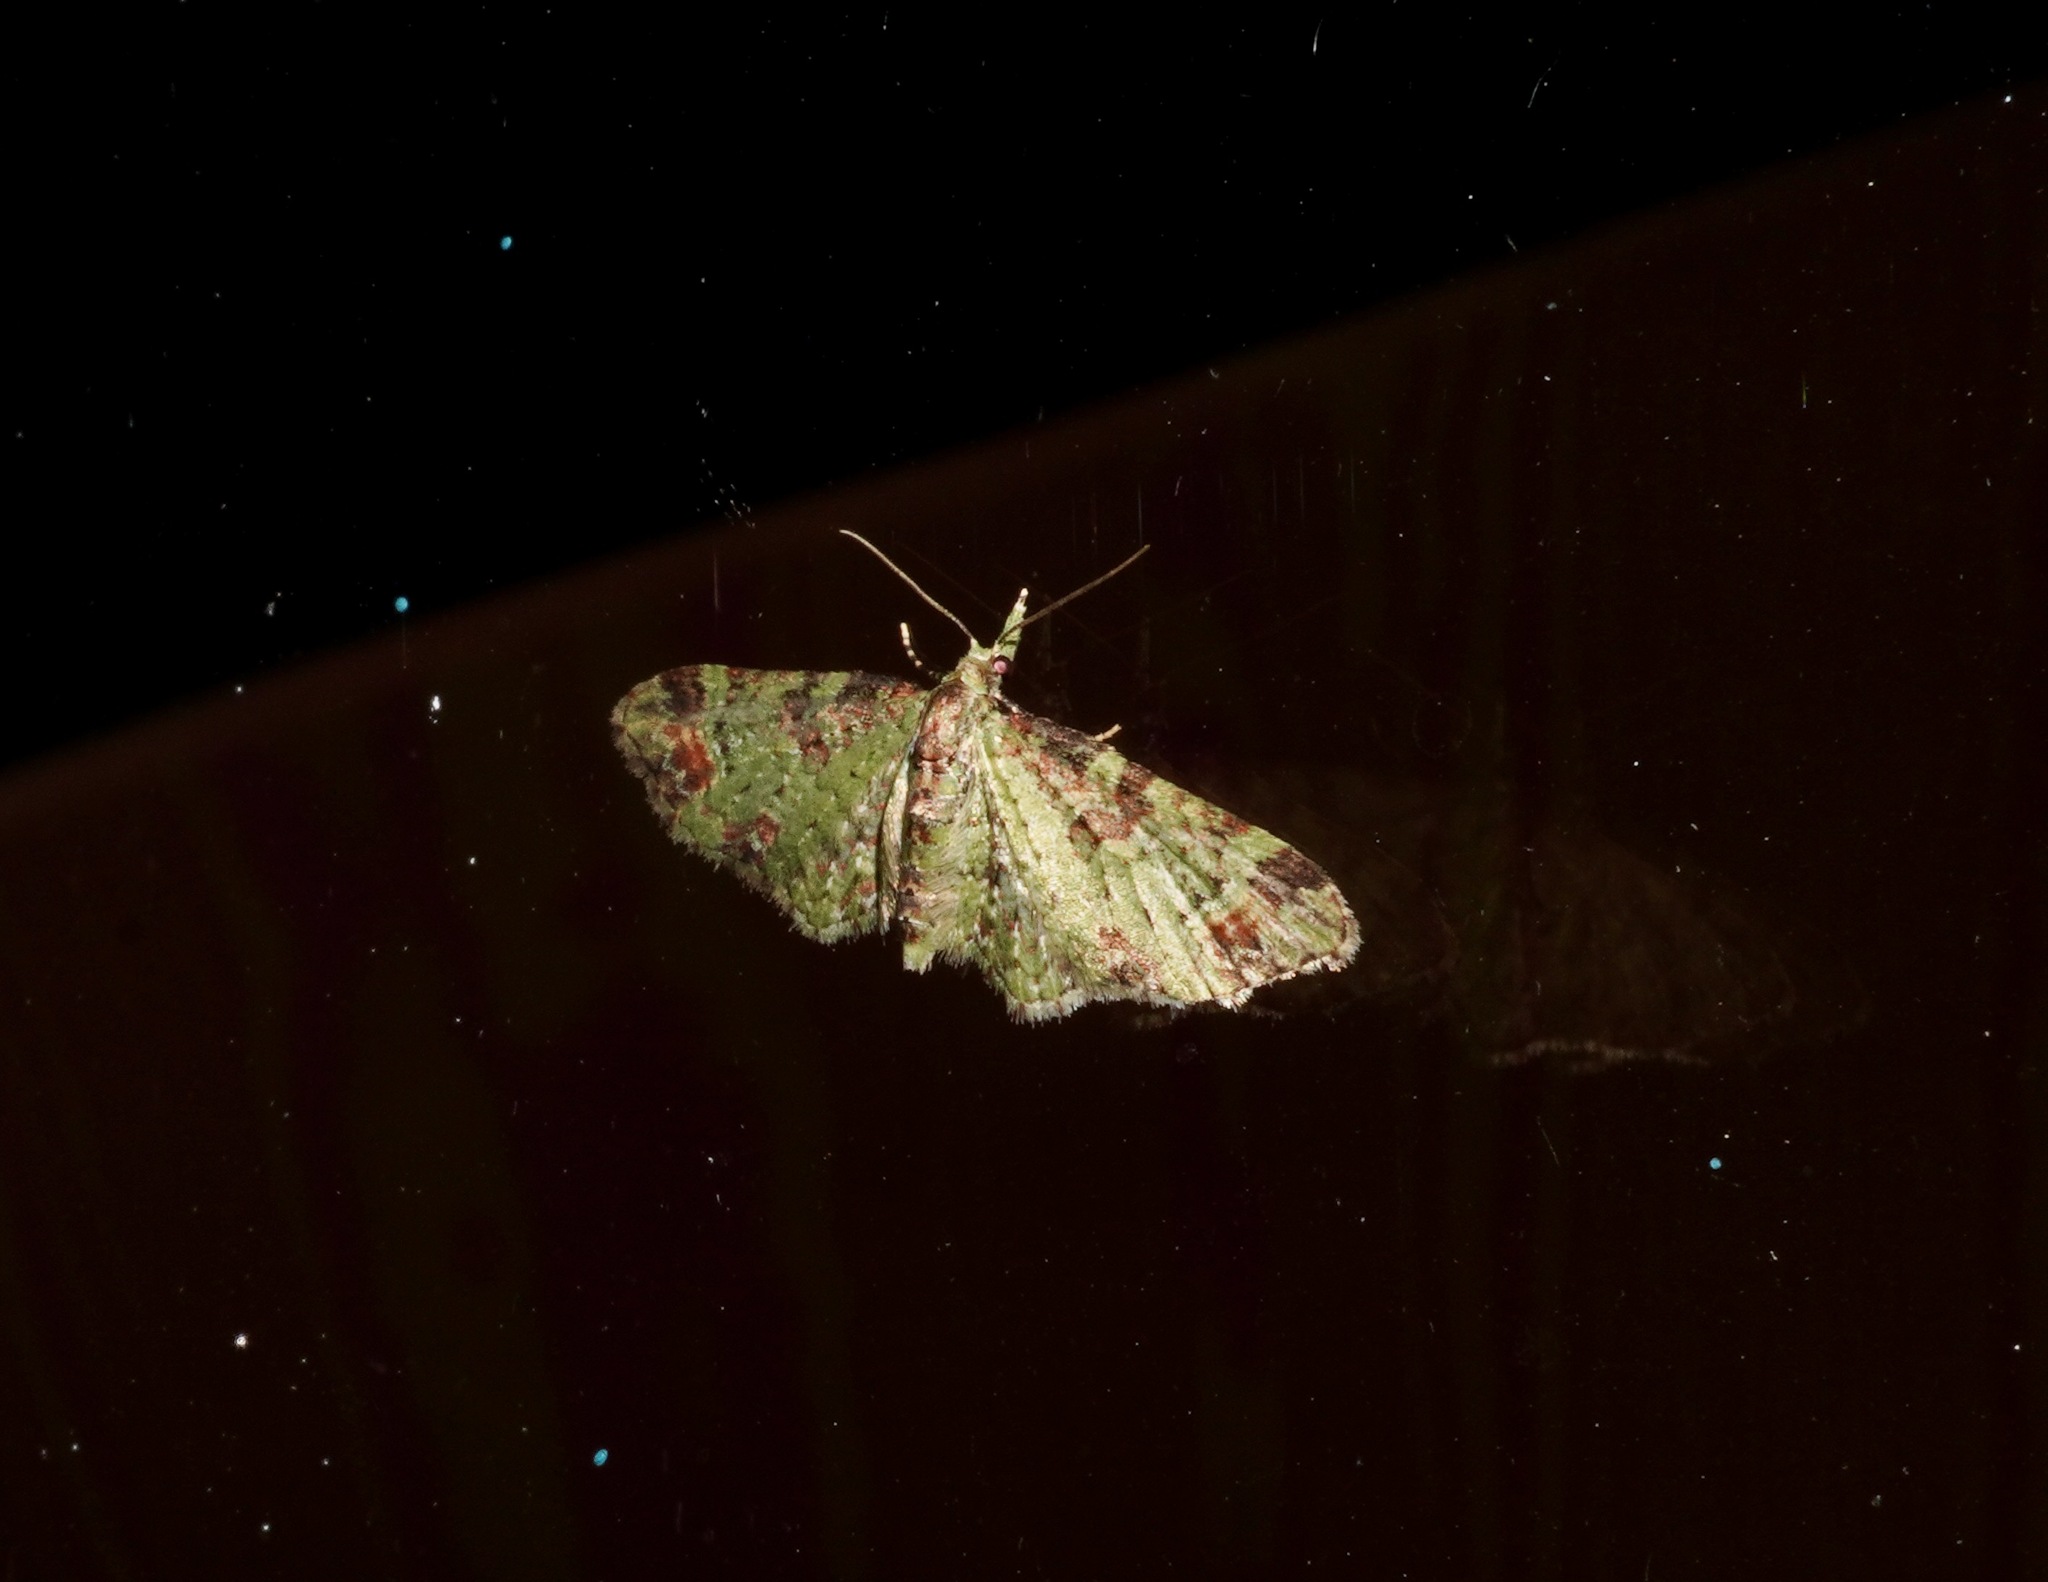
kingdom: Animalia
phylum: Arthropoda
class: Insecta
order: Lepidoptera
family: Geometridae
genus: Pasiphila
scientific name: Pasiphila plinthina
